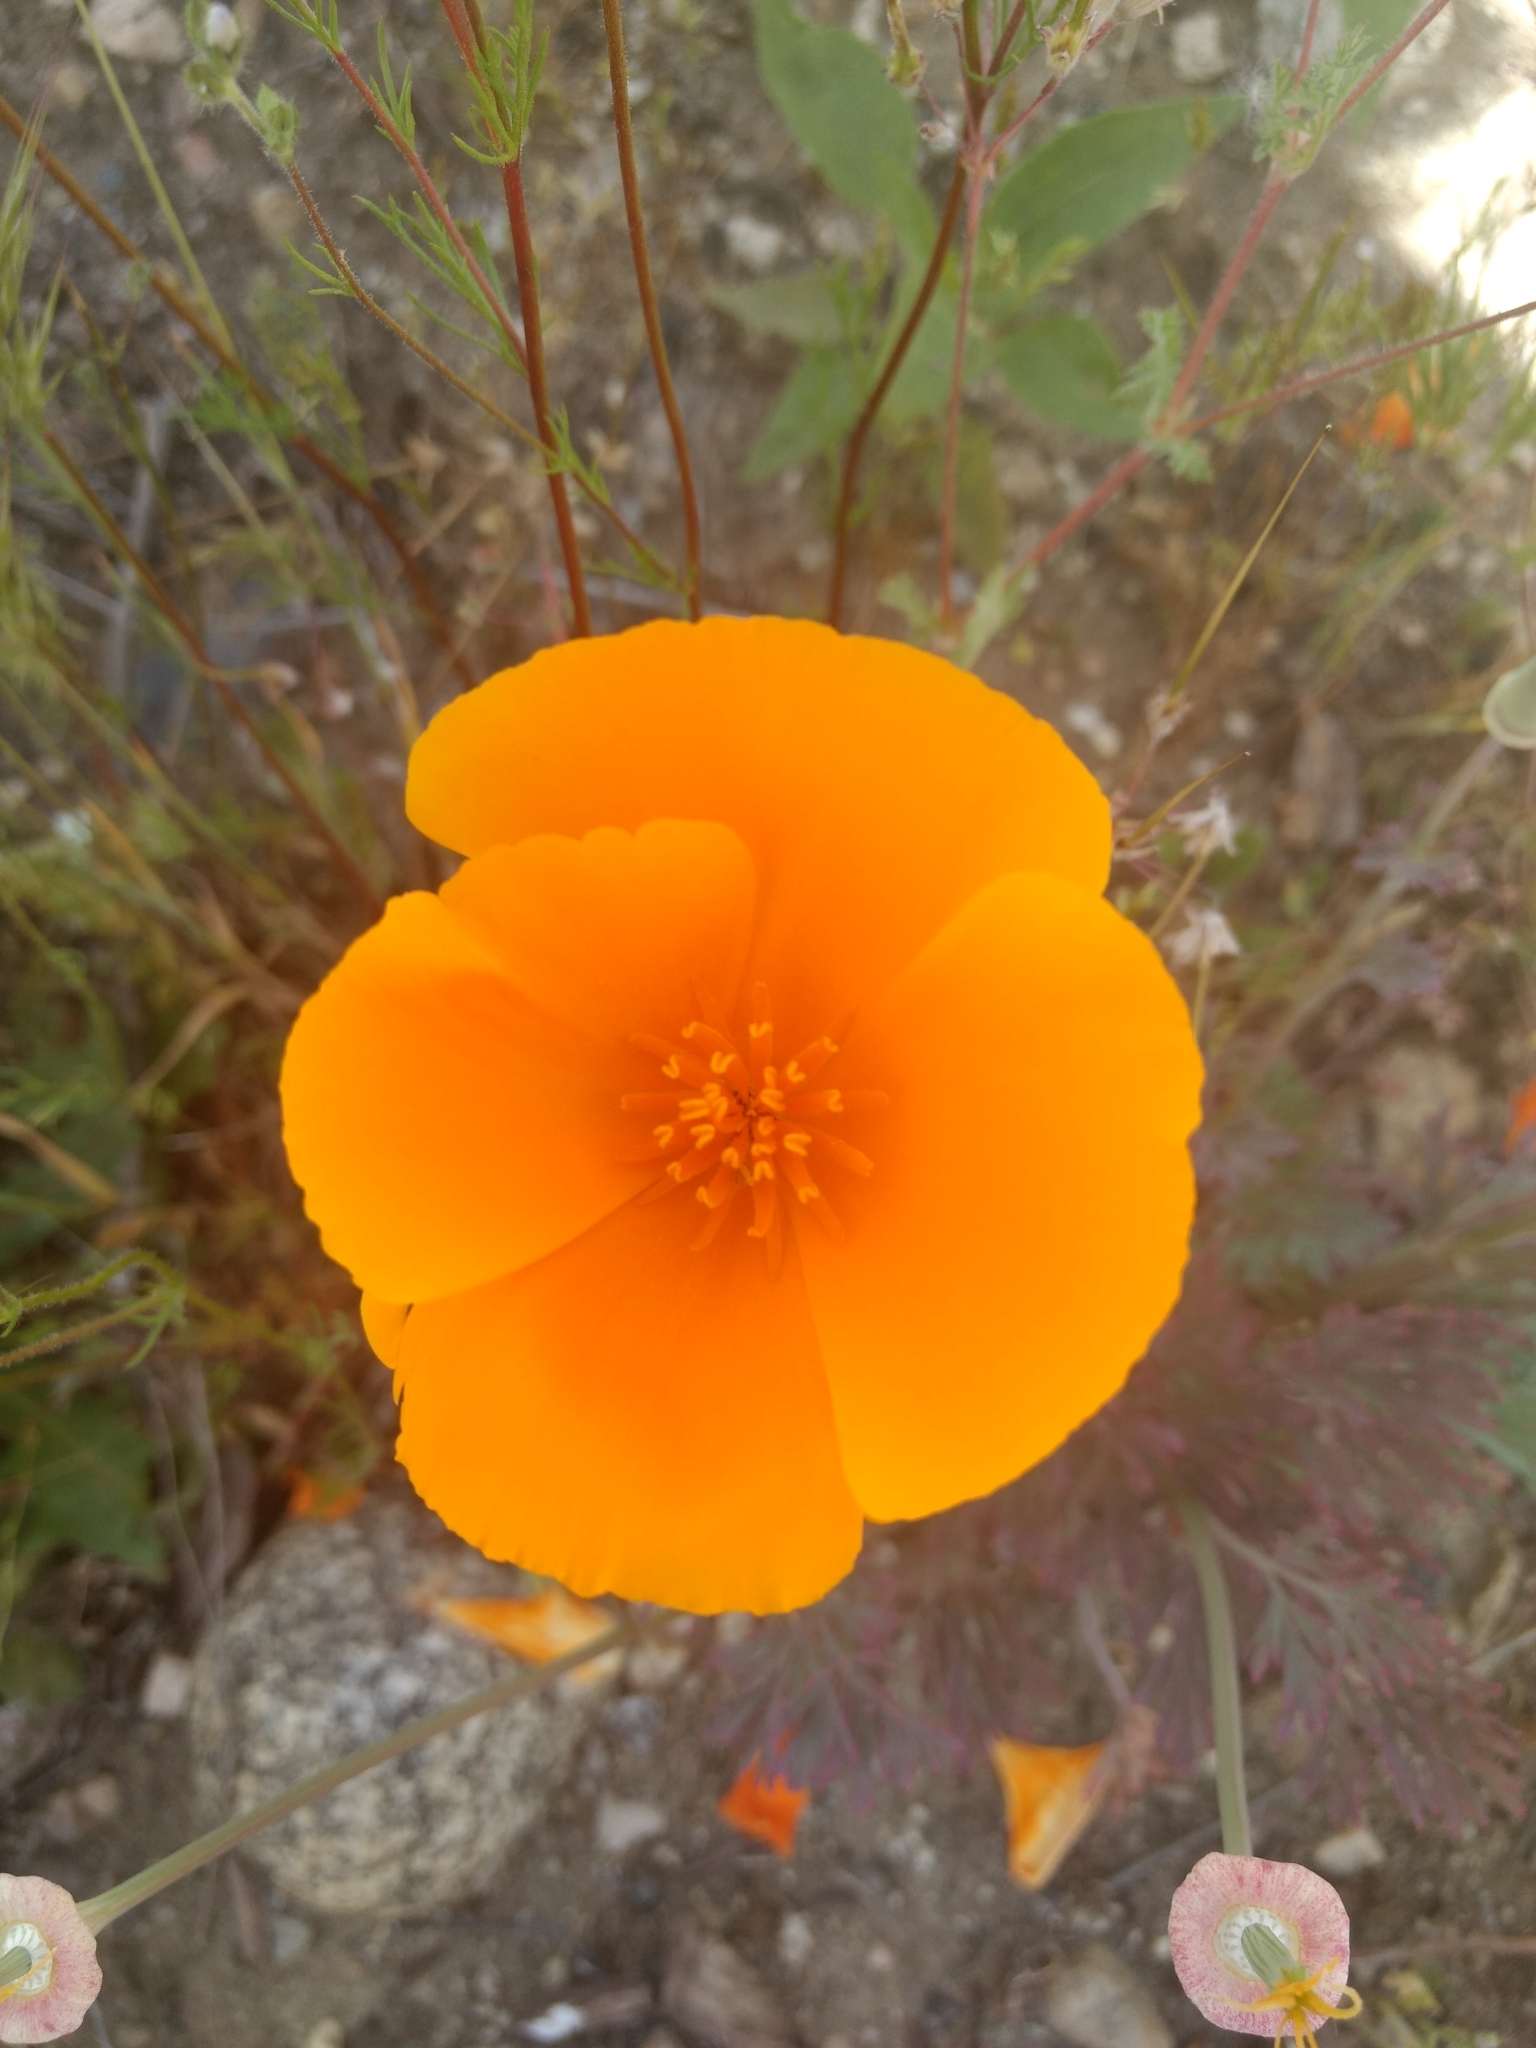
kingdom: Plantae
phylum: Tracheophyta
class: Magnoliopsida
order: Ranunculales
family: Papaveraceae
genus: Eschscholzia
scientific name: Eschscholzia californica
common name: California poppy
